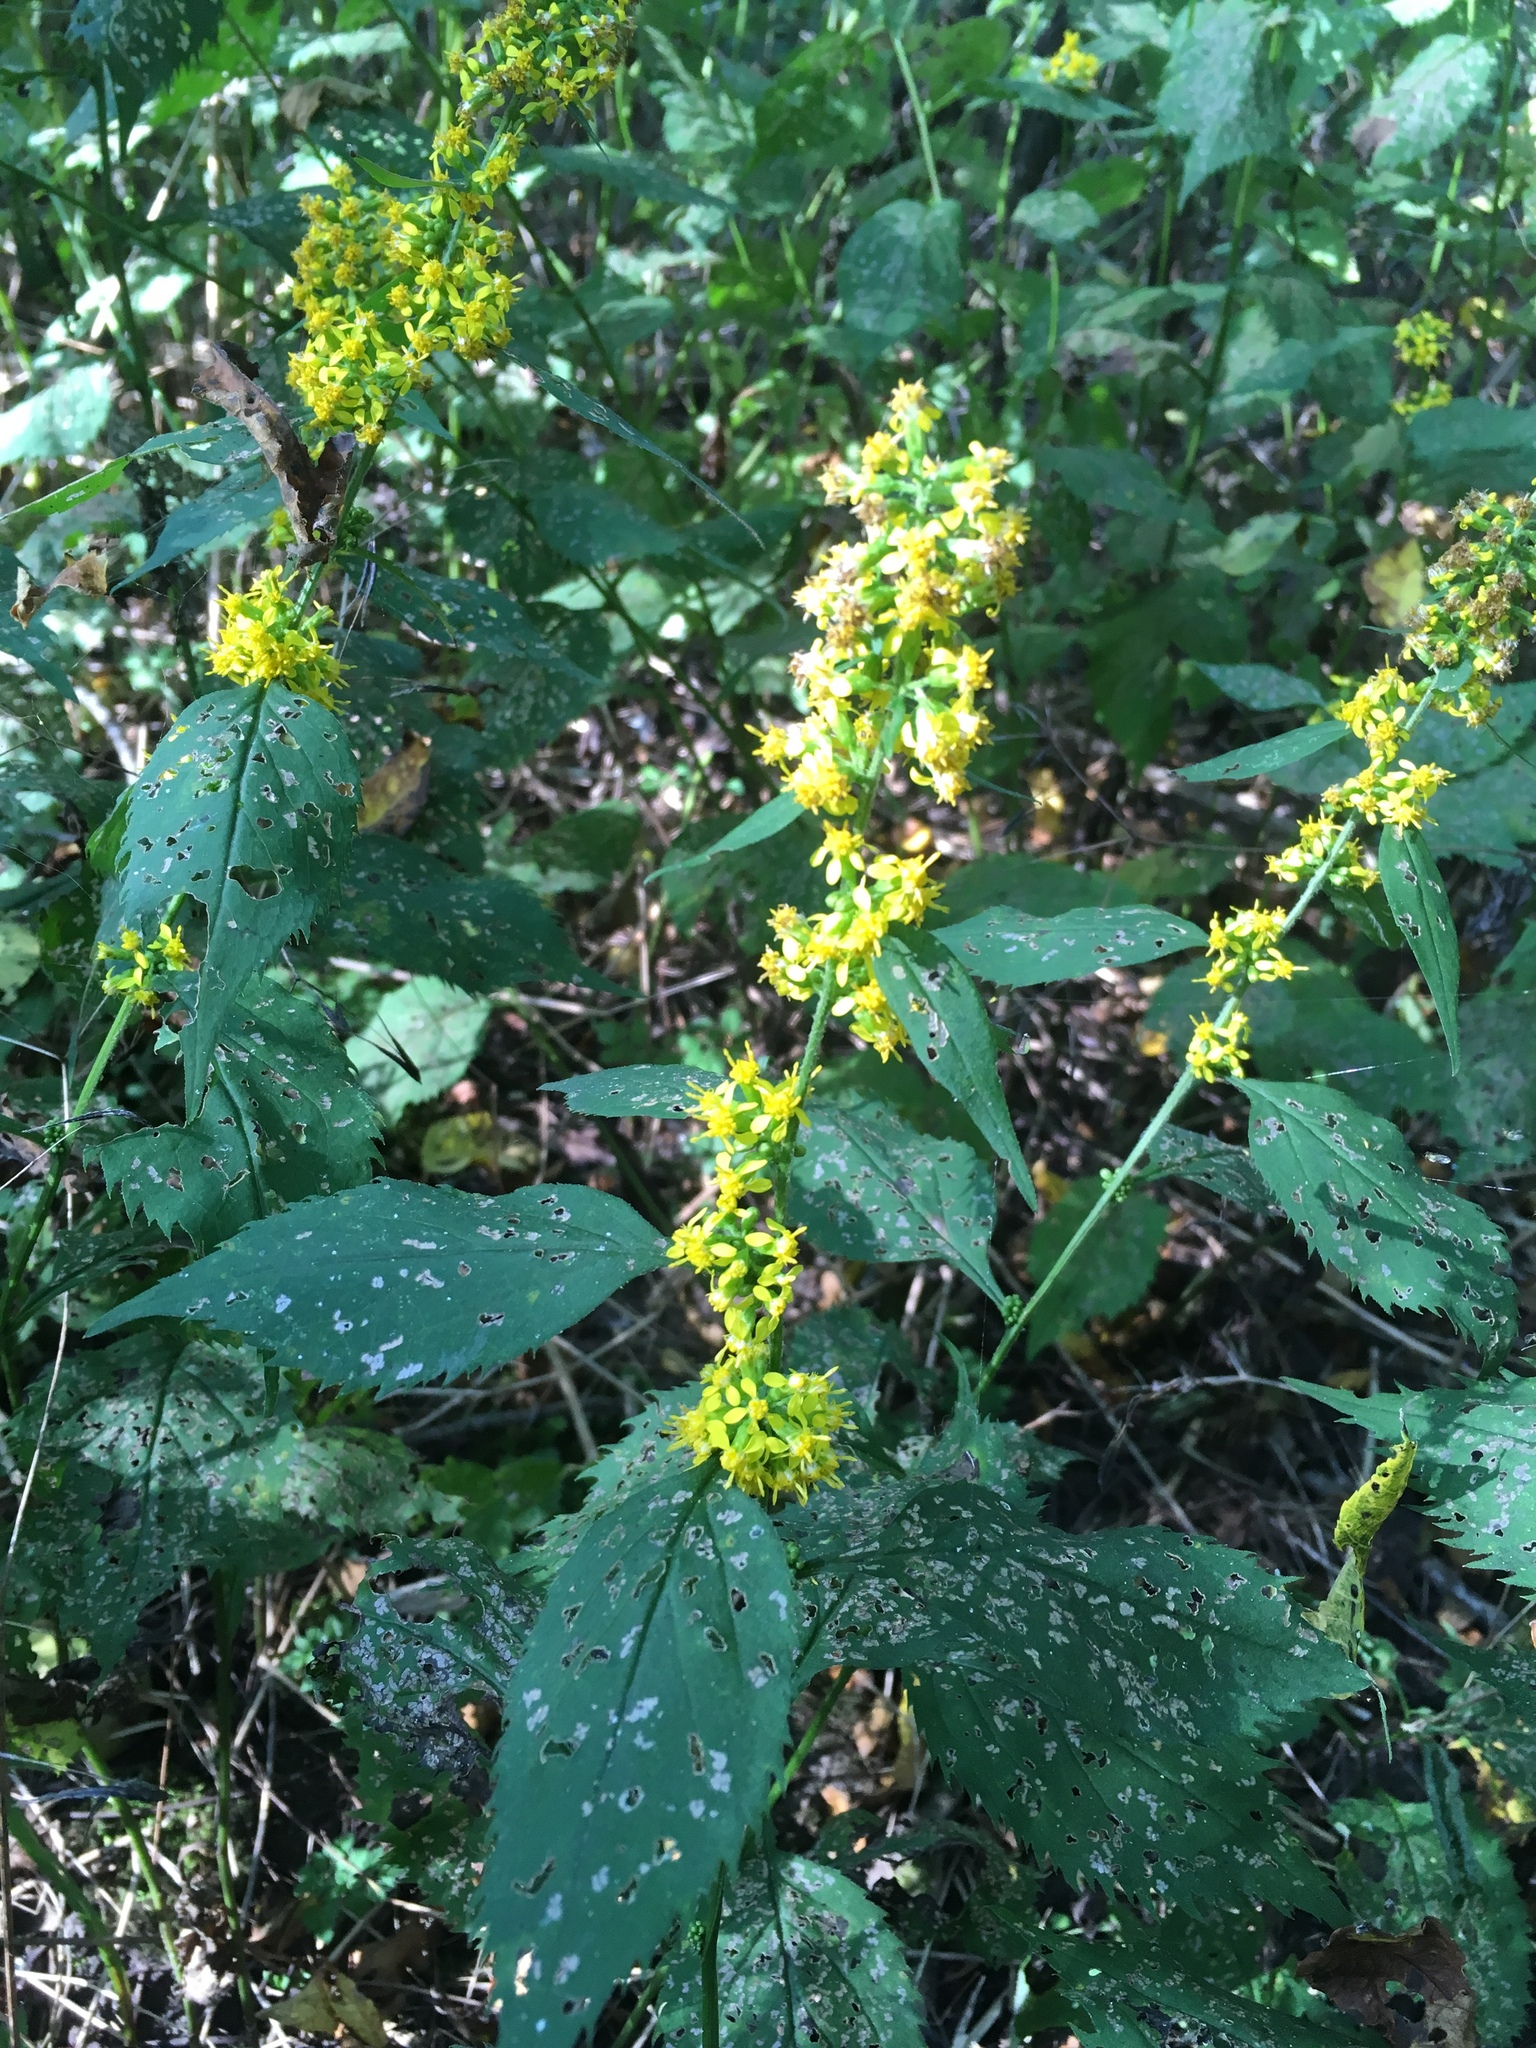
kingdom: Plantae
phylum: Tracheophyta
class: Magnoliopsida
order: Asterales
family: Asteraceae
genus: Solidago
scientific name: Solidago flexicaulis
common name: Zig-zag goldenrod
